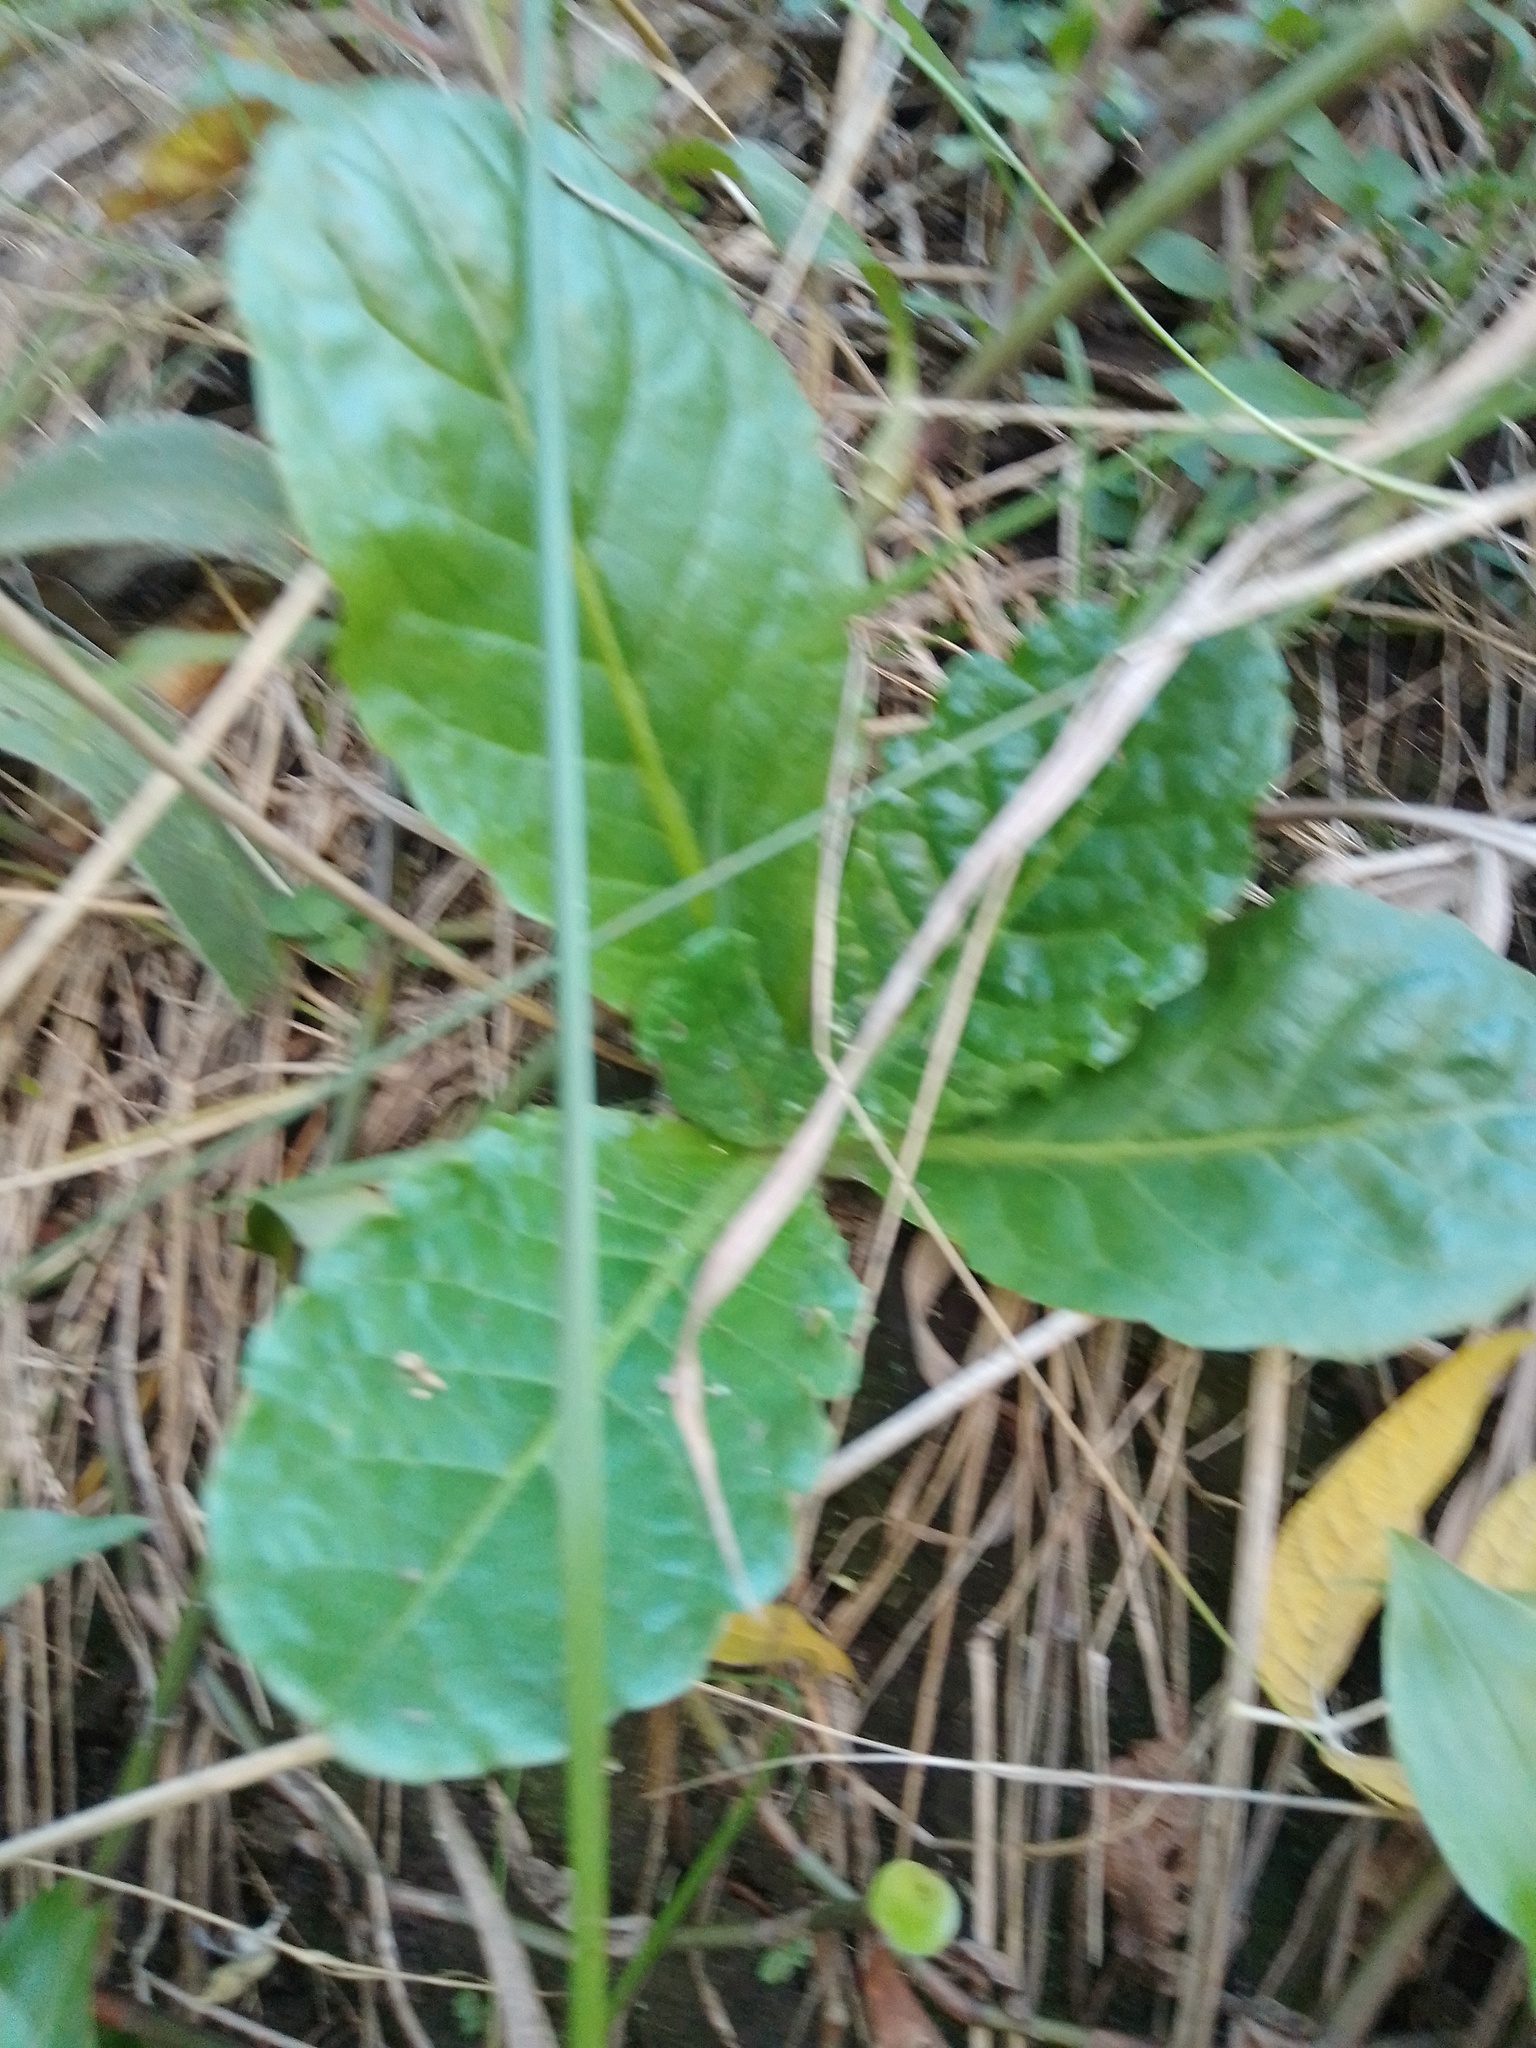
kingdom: Plantae
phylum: Tracheophyta
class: Magnoliopsida
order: Asterales
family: Asteraceae
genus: Chaptalia
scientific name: Chaptalia nutans
